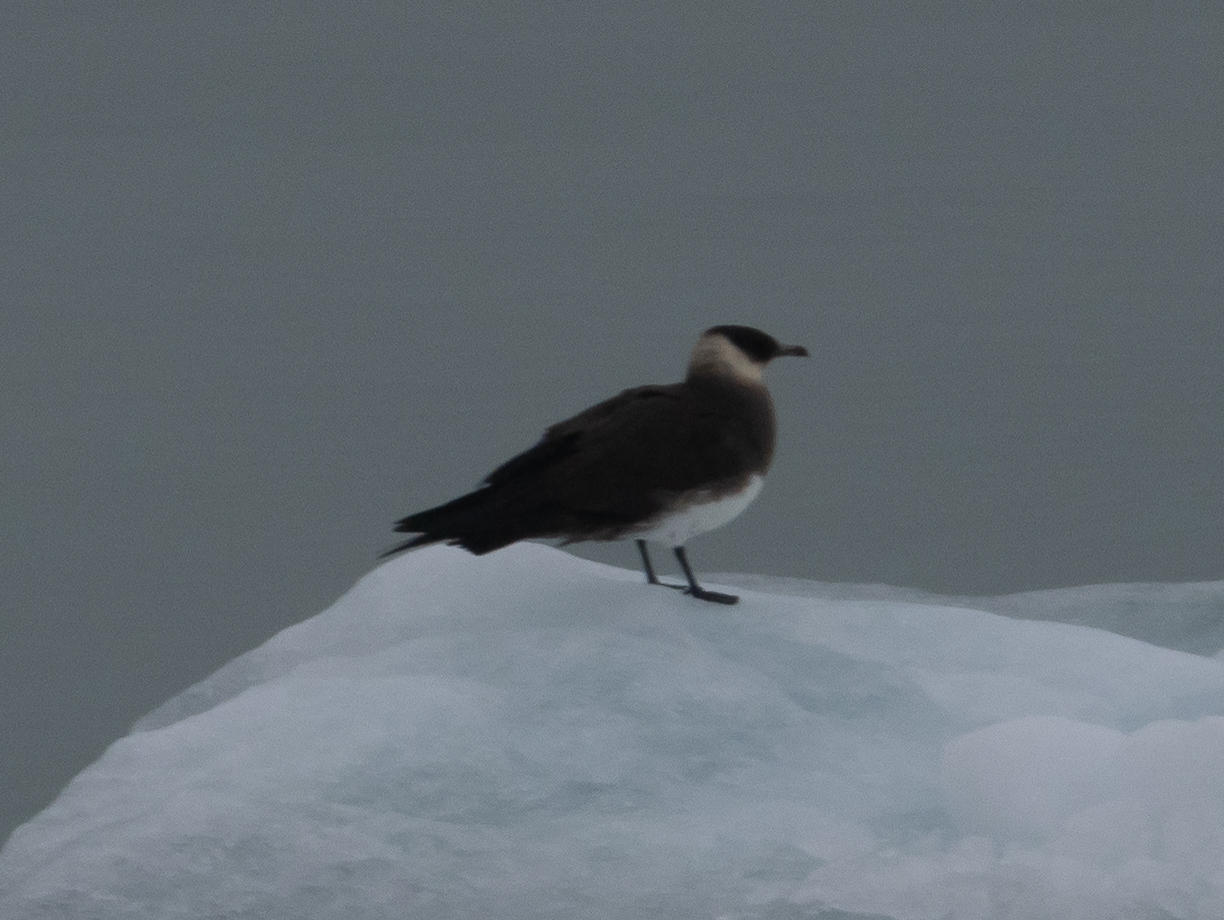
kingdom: Animalia
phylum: Chordata
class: Aves
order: Charadriiformes
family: Stercorariidae
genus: Stercorarius
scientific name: Stercorarius parasiticus
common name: Parasitic jaeger
